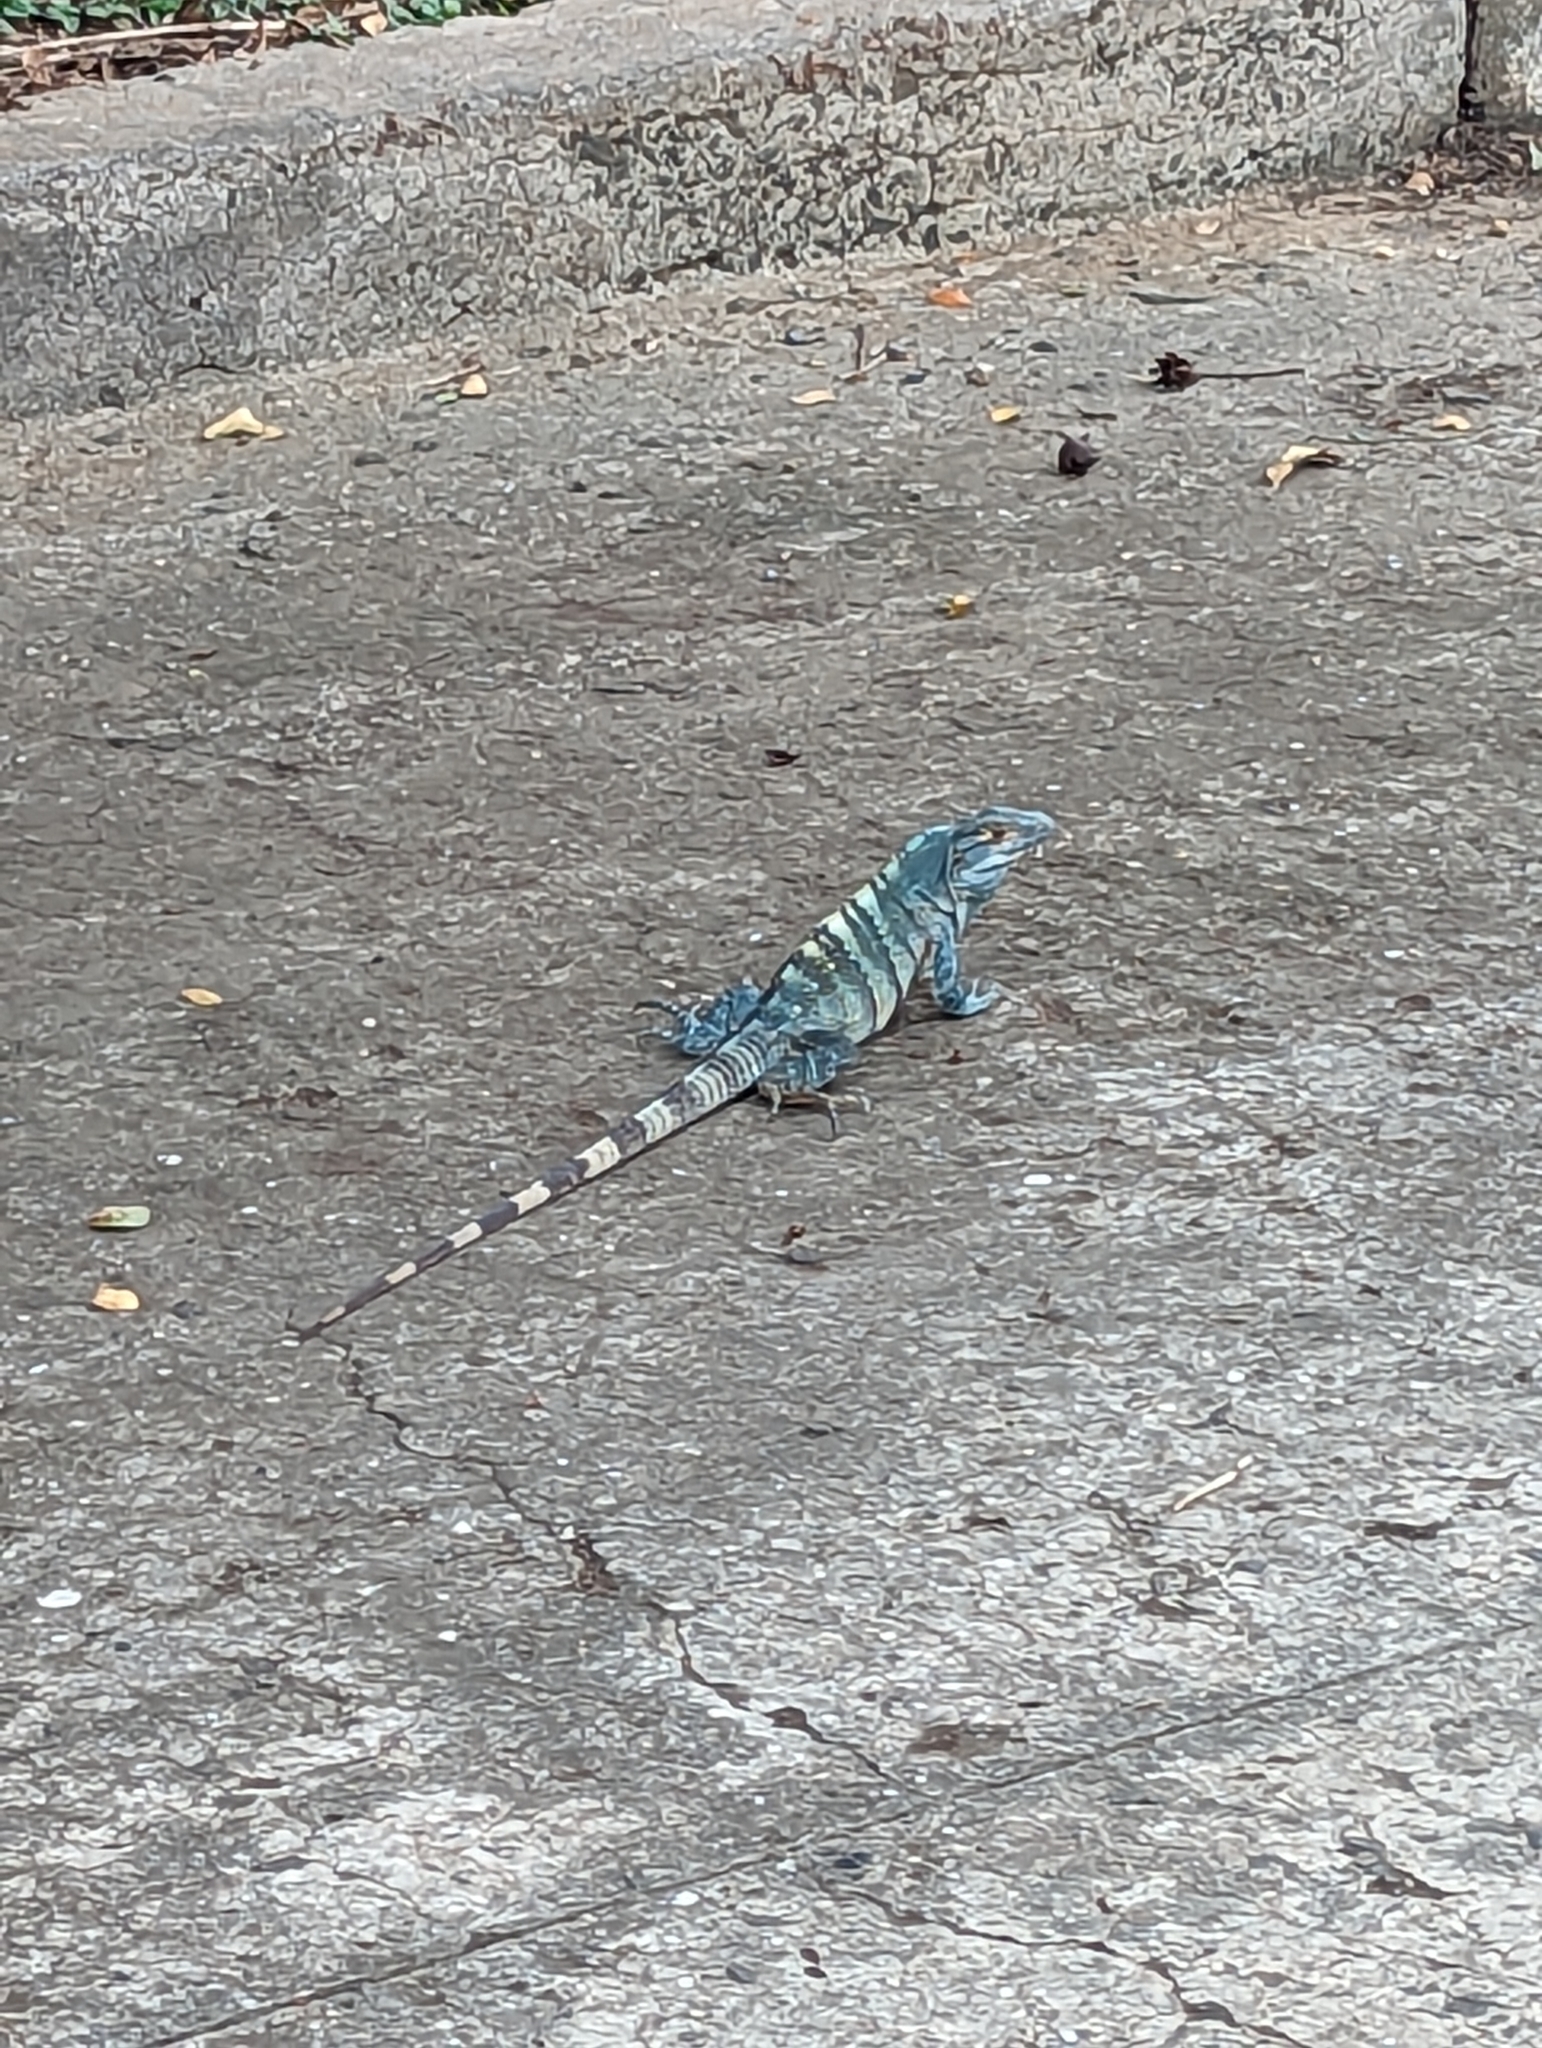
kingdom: Animalia
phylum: Chordata
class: Squamata
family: Iguanidae
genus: Ctenosaura
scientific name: Ctenosaura similis
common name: Black spiny-tailed iguana
